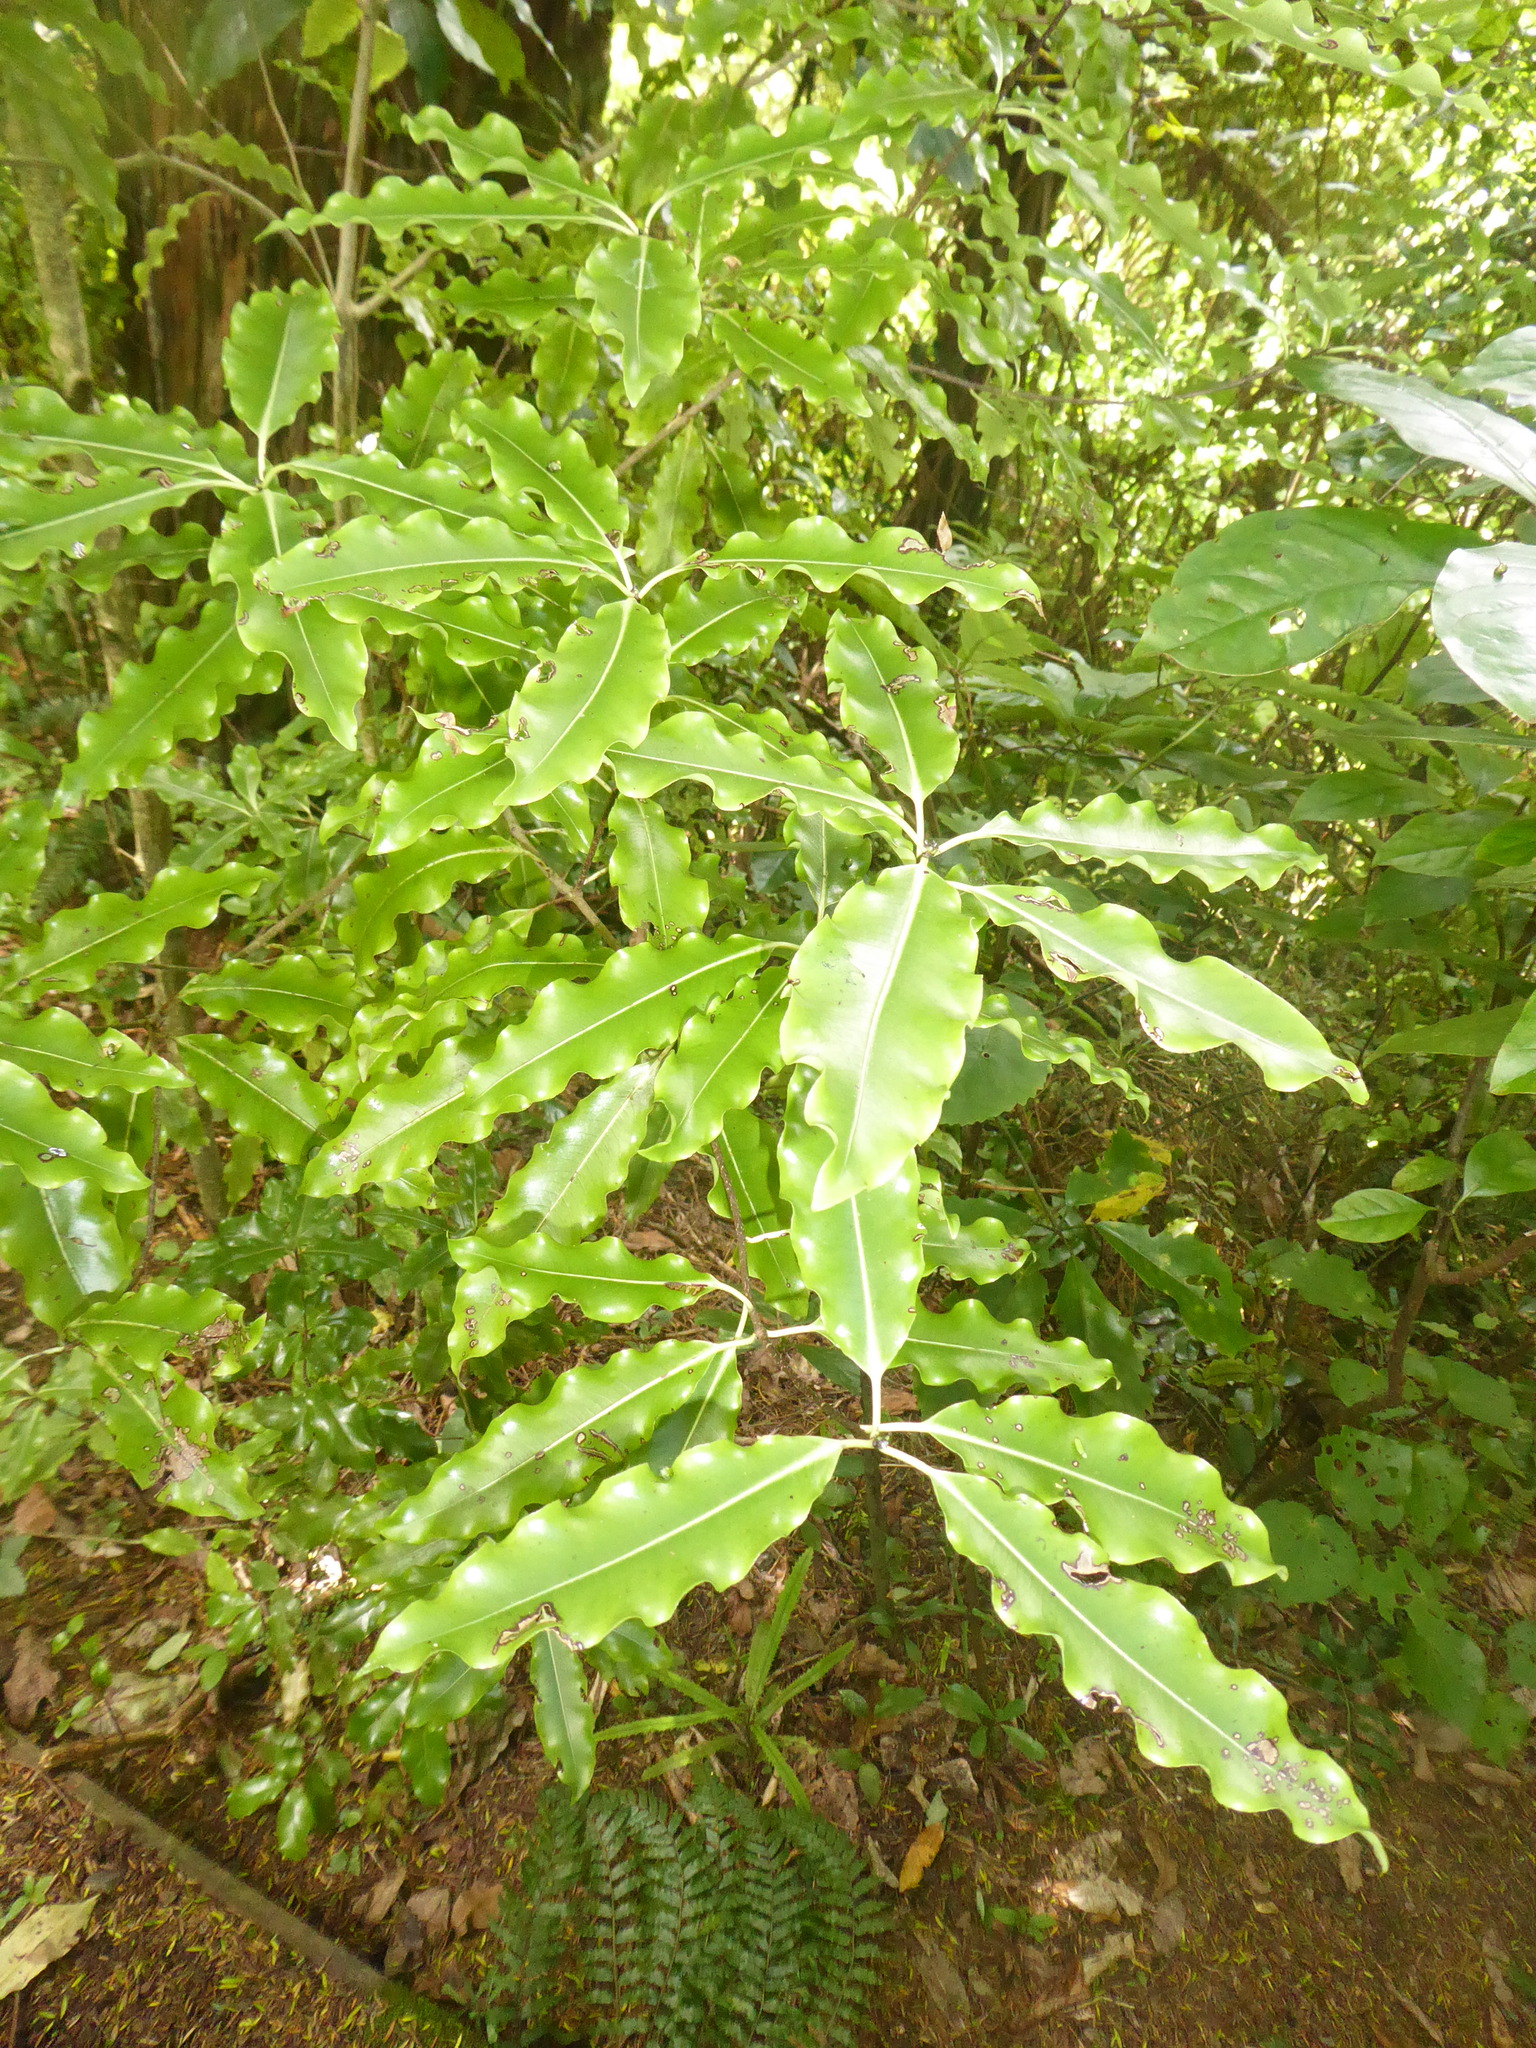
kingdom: Plantae
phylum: Tracheophyta
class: Magnoliopsida
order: Apiales
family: Pittosporaceae
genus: Pittosporum
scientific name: Pittosporum eugenioides
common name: Lemonwood
